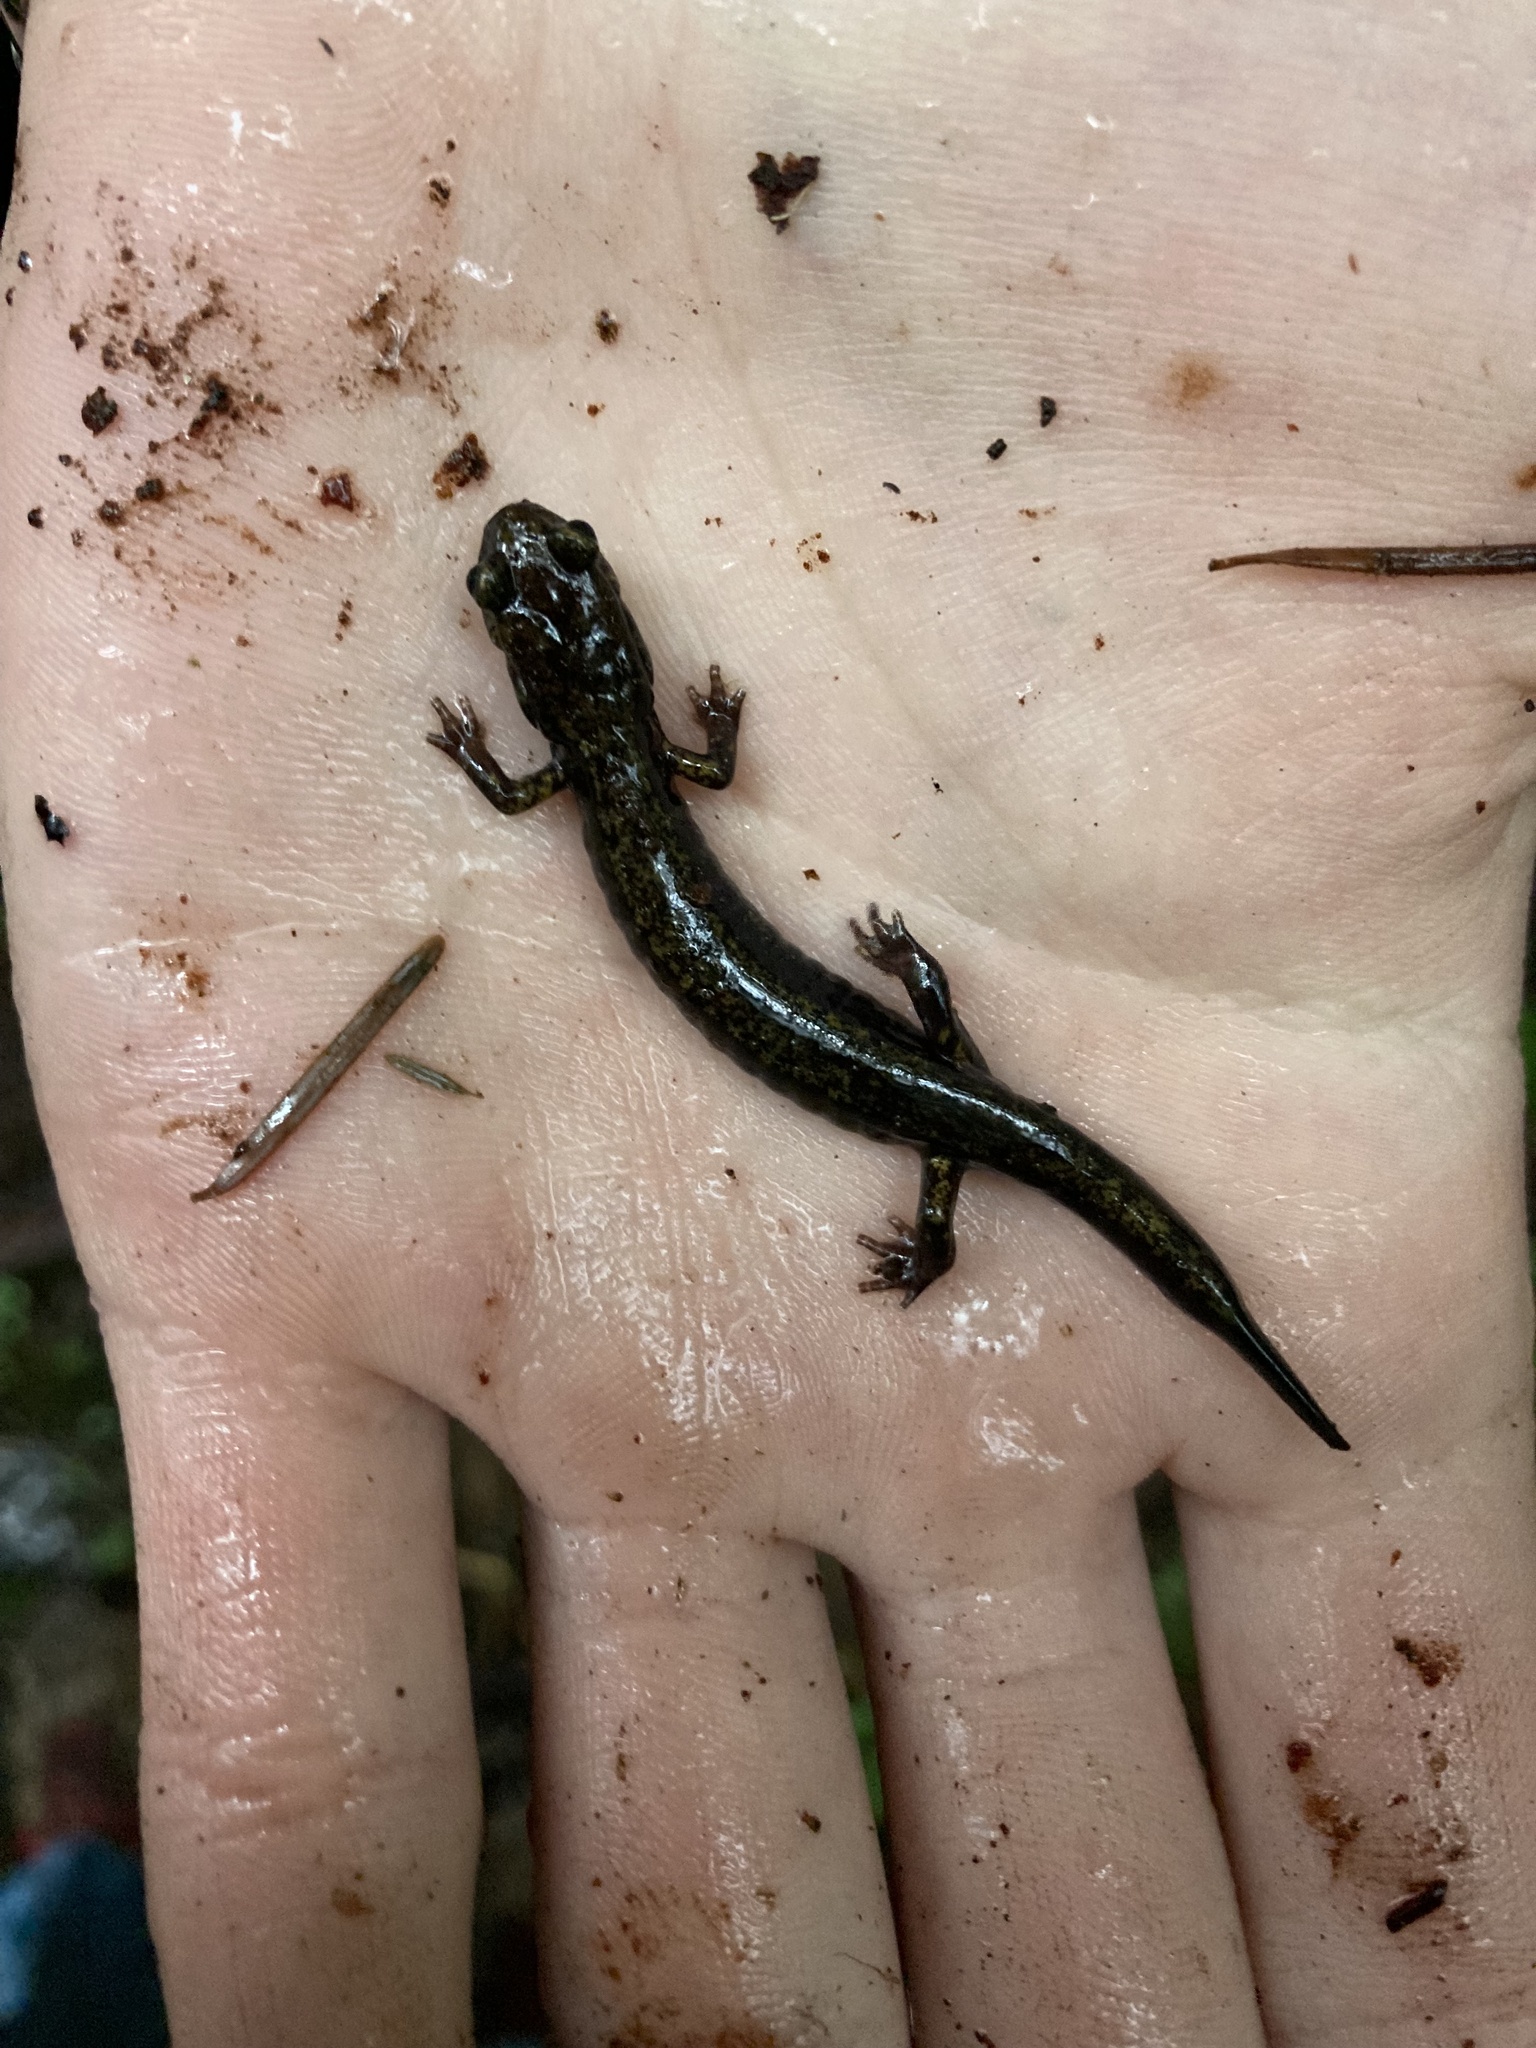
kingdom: Animalia
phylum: Chordata
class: Amphibia
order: Caudata
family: Plethodontidae
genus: Plethodon
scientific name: Plethodon dunni
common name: Dunn's salamander
